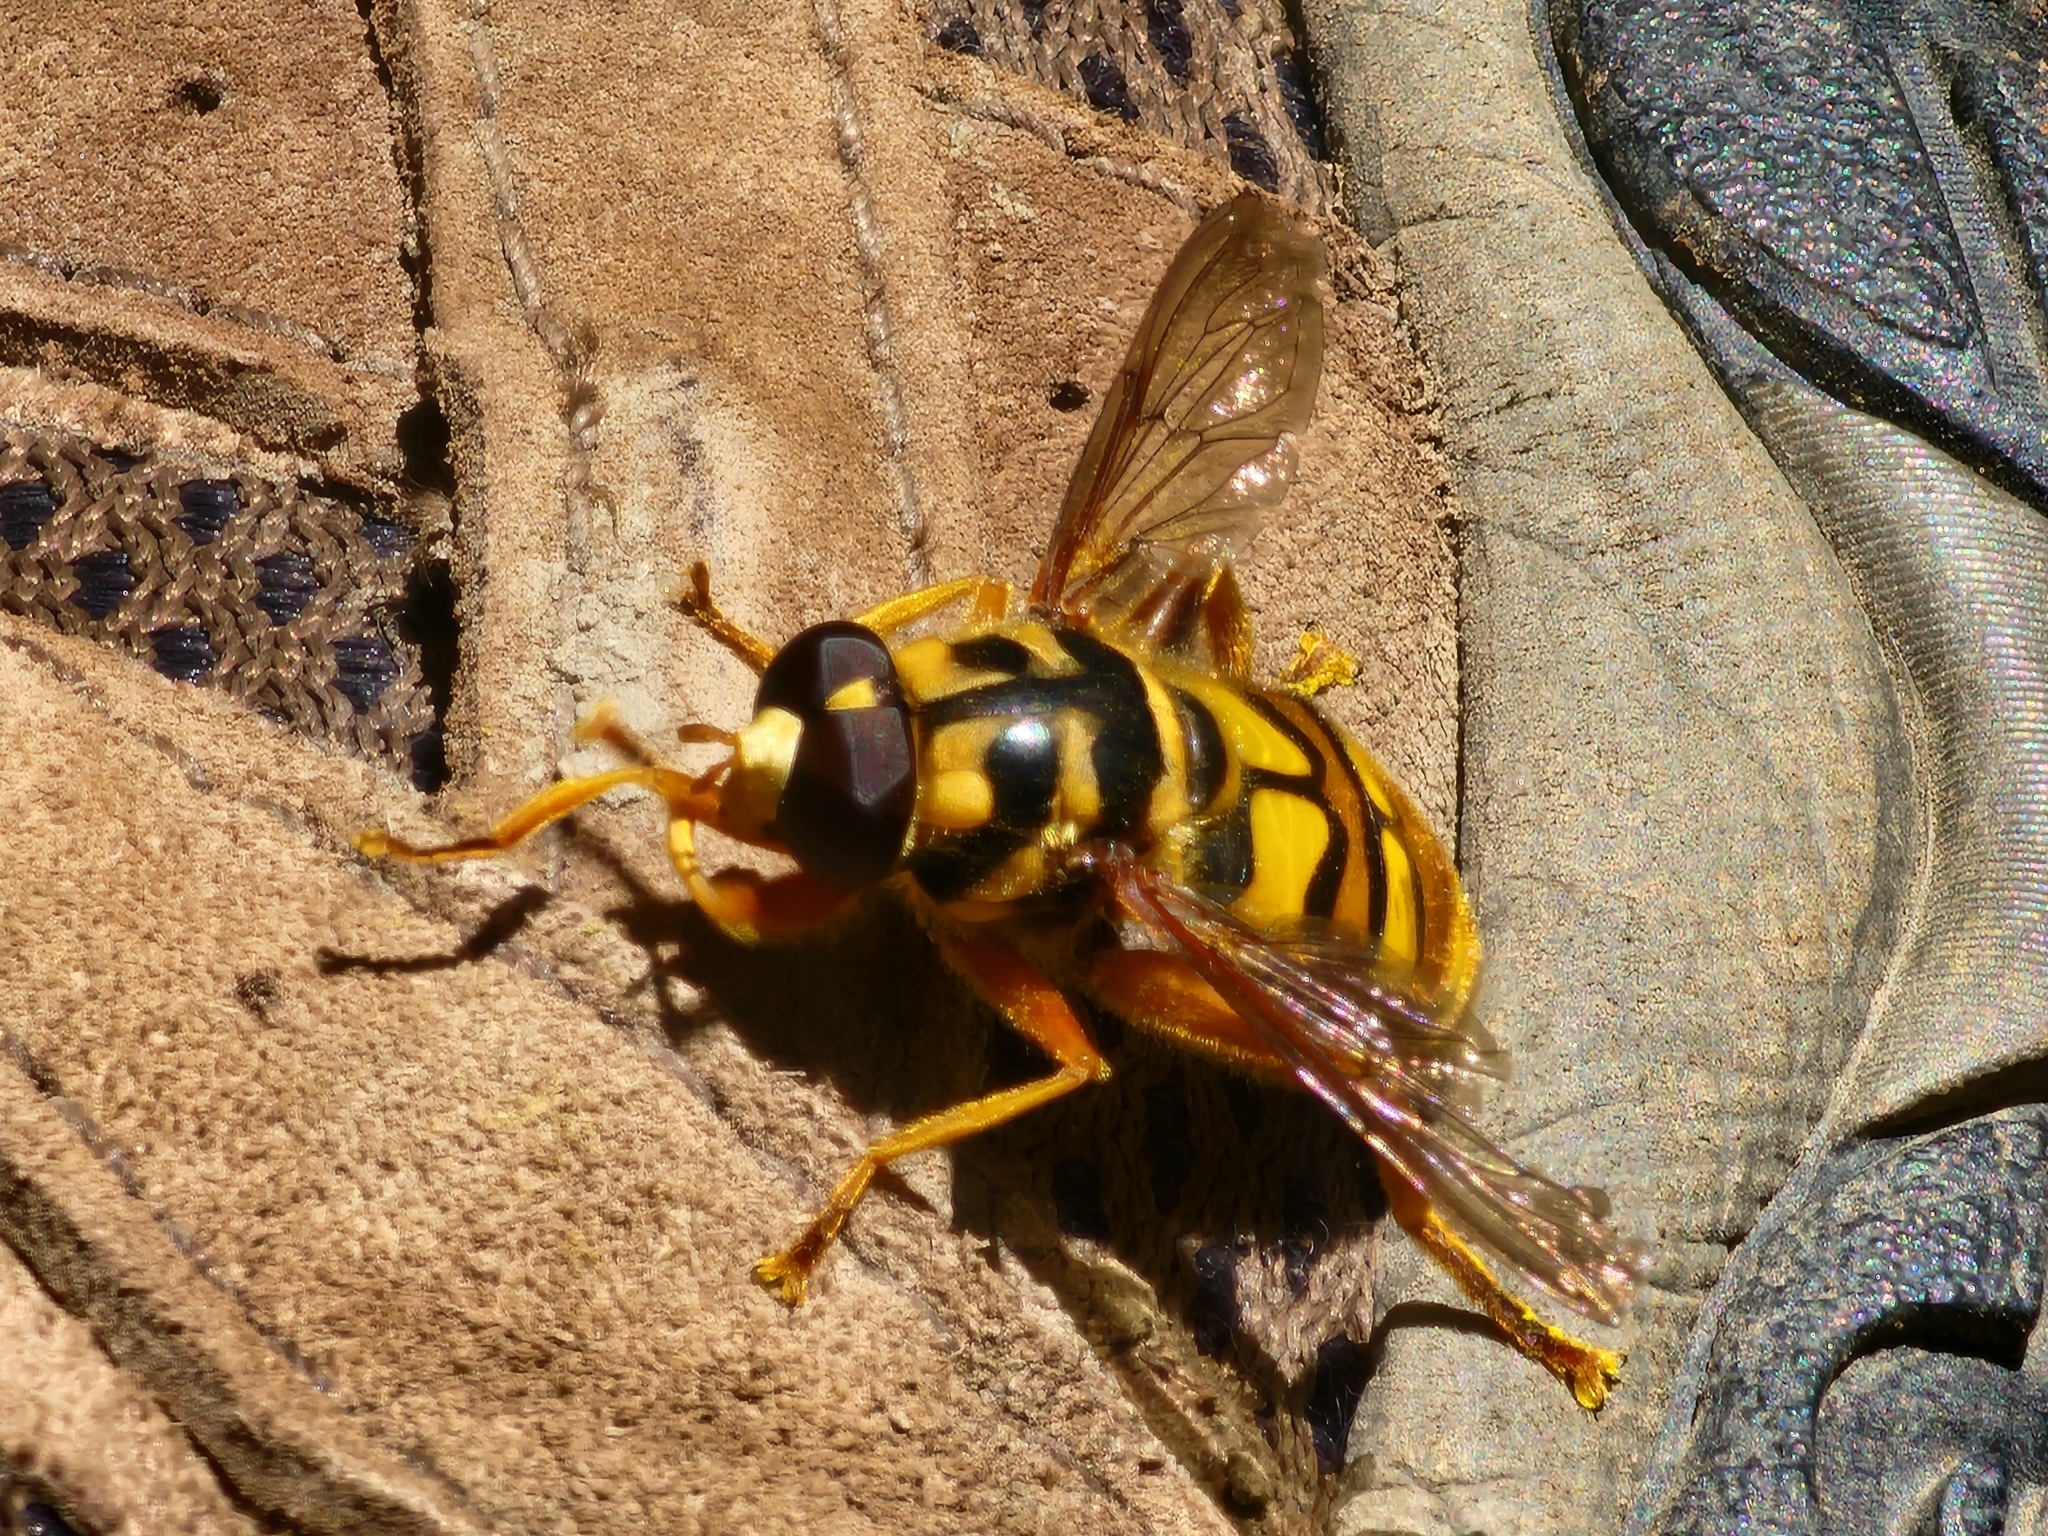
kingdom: Animalia
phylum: Arthropoda
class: Insecta
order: Diptera
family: Syrphidae
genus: Milesia
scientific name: Milesia virginiensis
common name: Virginia giant
